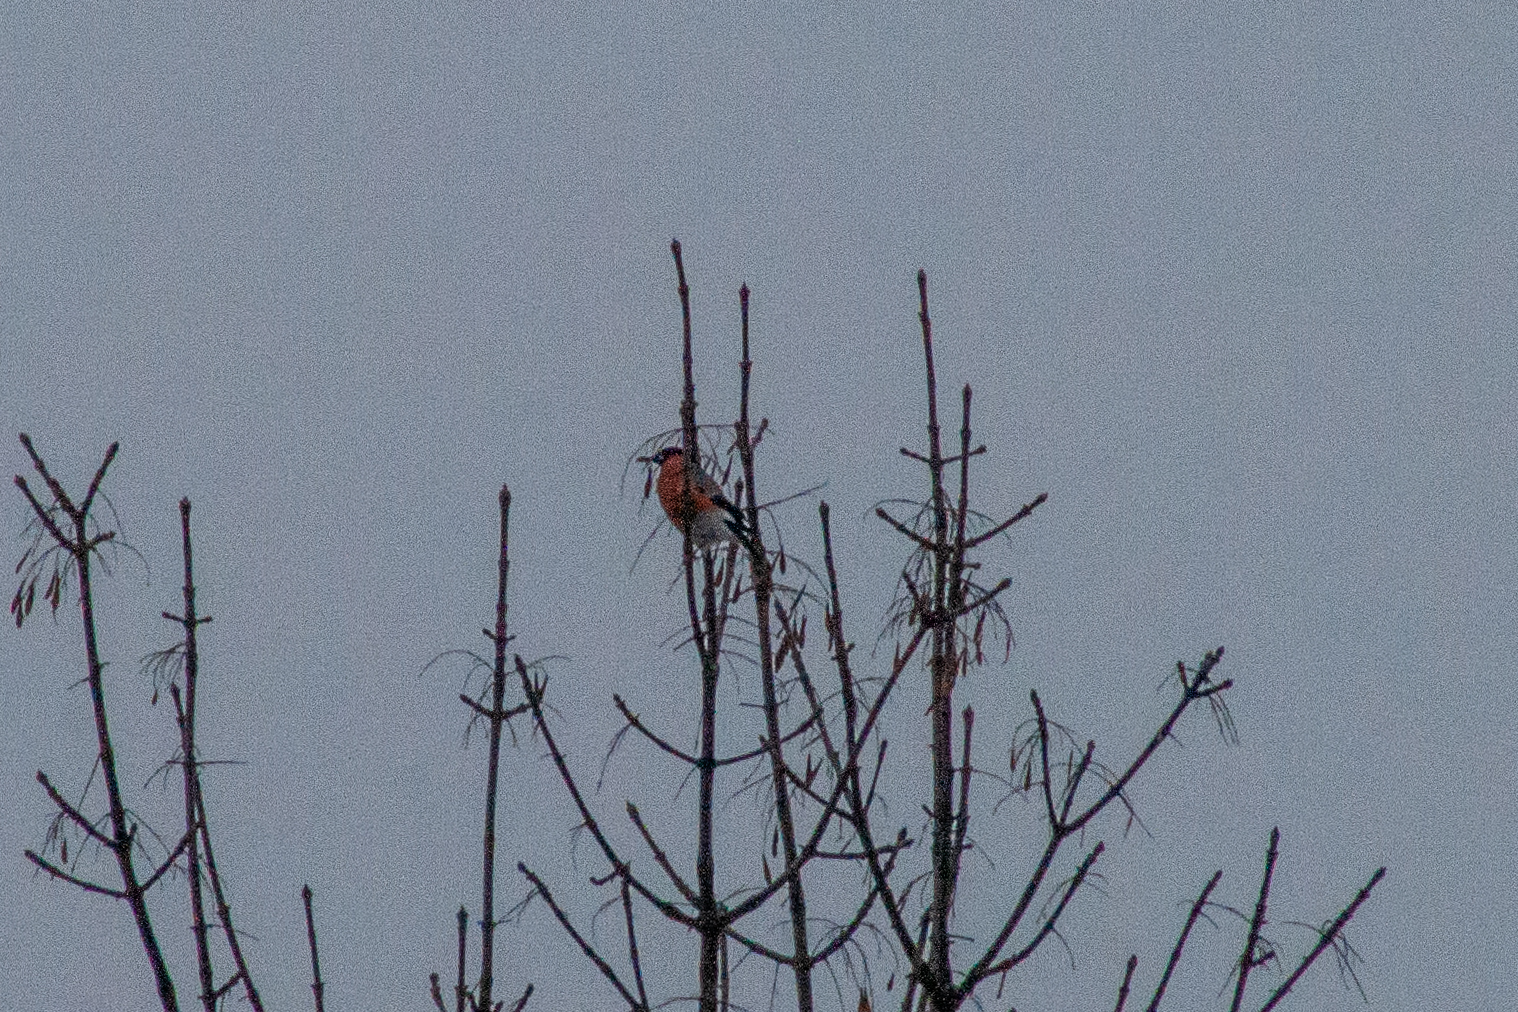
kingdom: Animalia
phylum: Chordata
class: Aves
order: Passeriformes
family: Fringillidae
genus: Pyrrhula
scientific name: Pyrrhula pyrrhula
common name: Eurasian bullfinch
